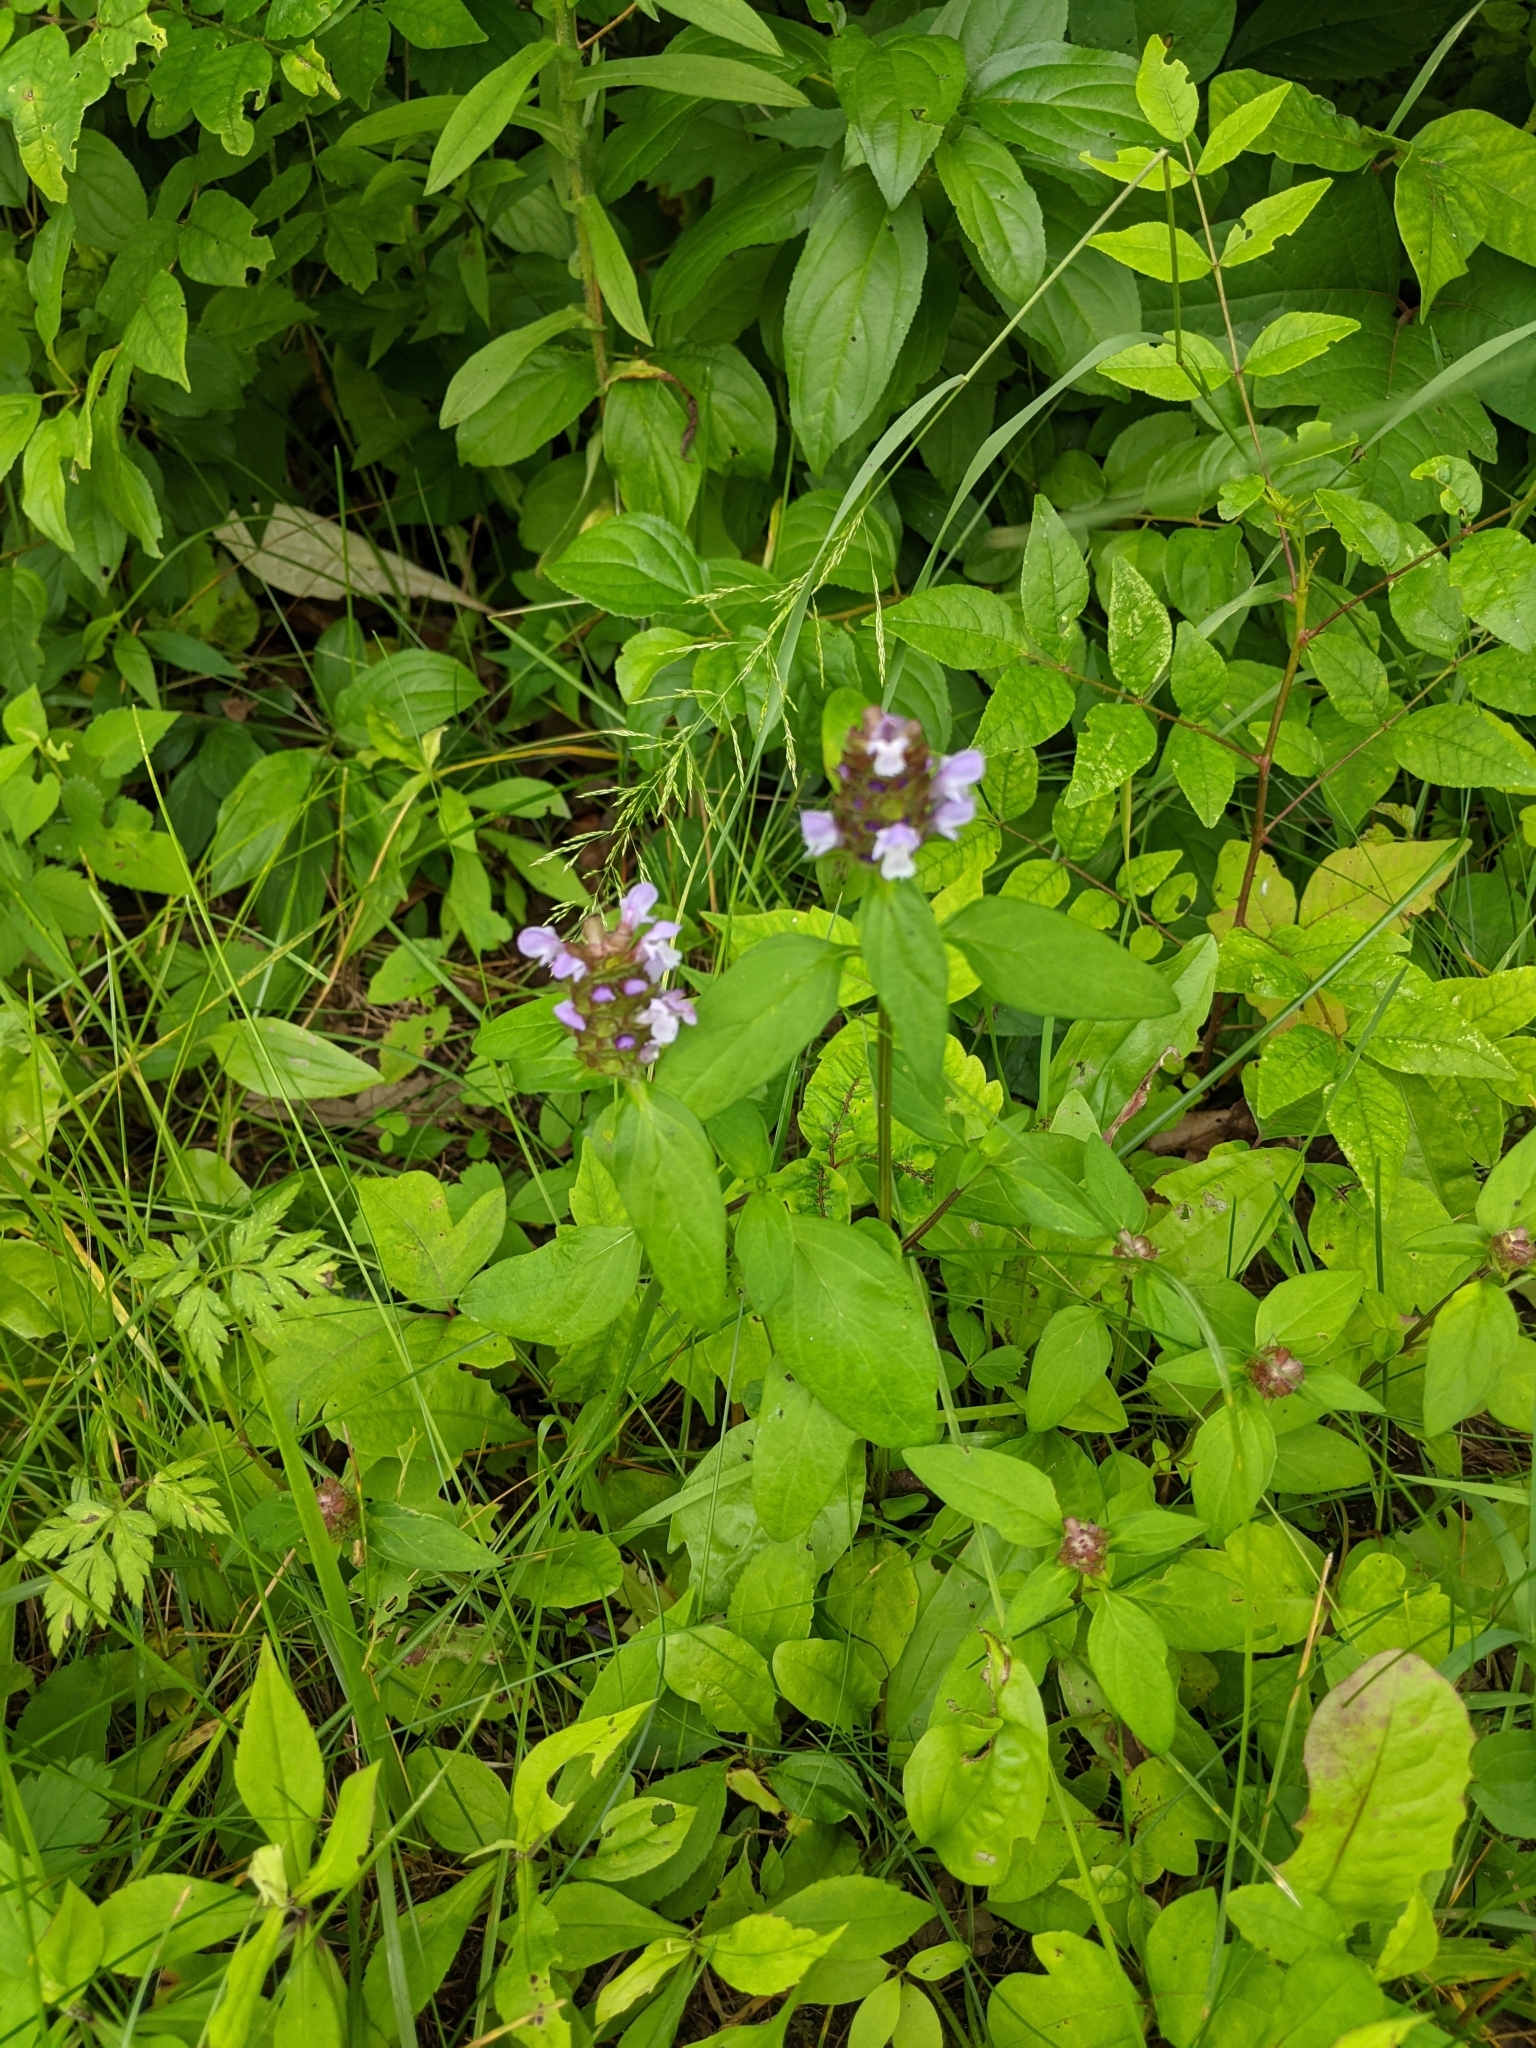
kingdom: Plantae
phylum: Tracheophyta
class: Magnoliopsida
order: Lamiales
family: Lamiaceae
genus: Prunella
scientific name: Prunella vulgaris
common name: Heal-all
